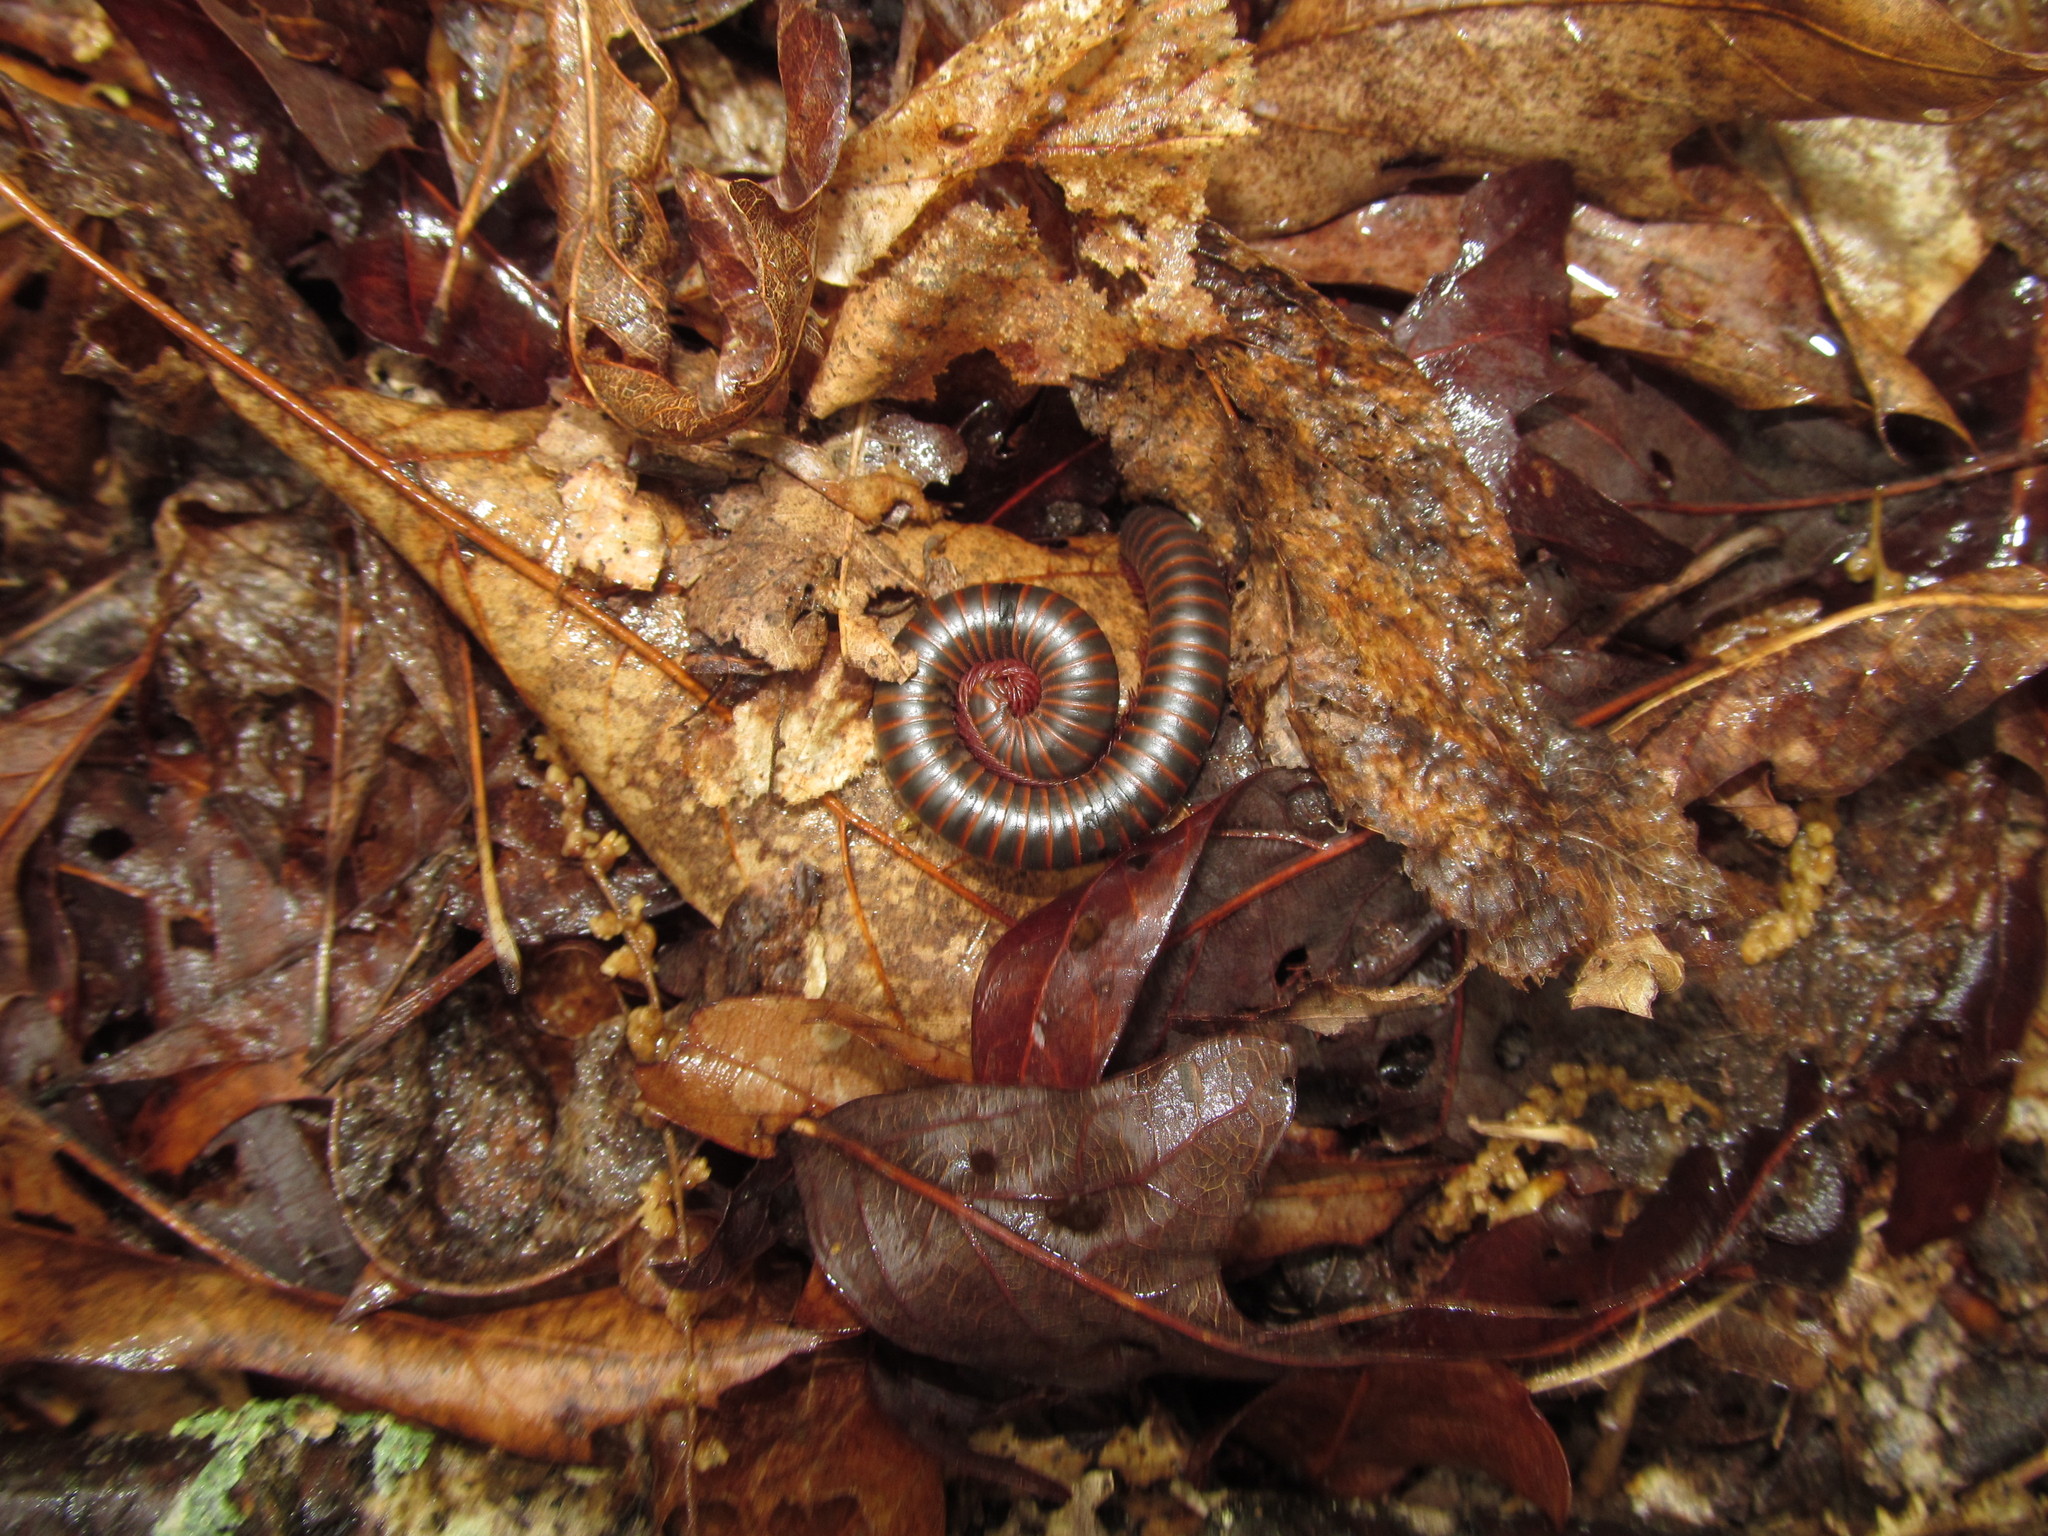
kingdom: Animalia
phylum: Arthropoda
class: Diplopoda
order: Spirobolida
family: Spirobolidae
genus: Narceus
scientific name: Narceus
